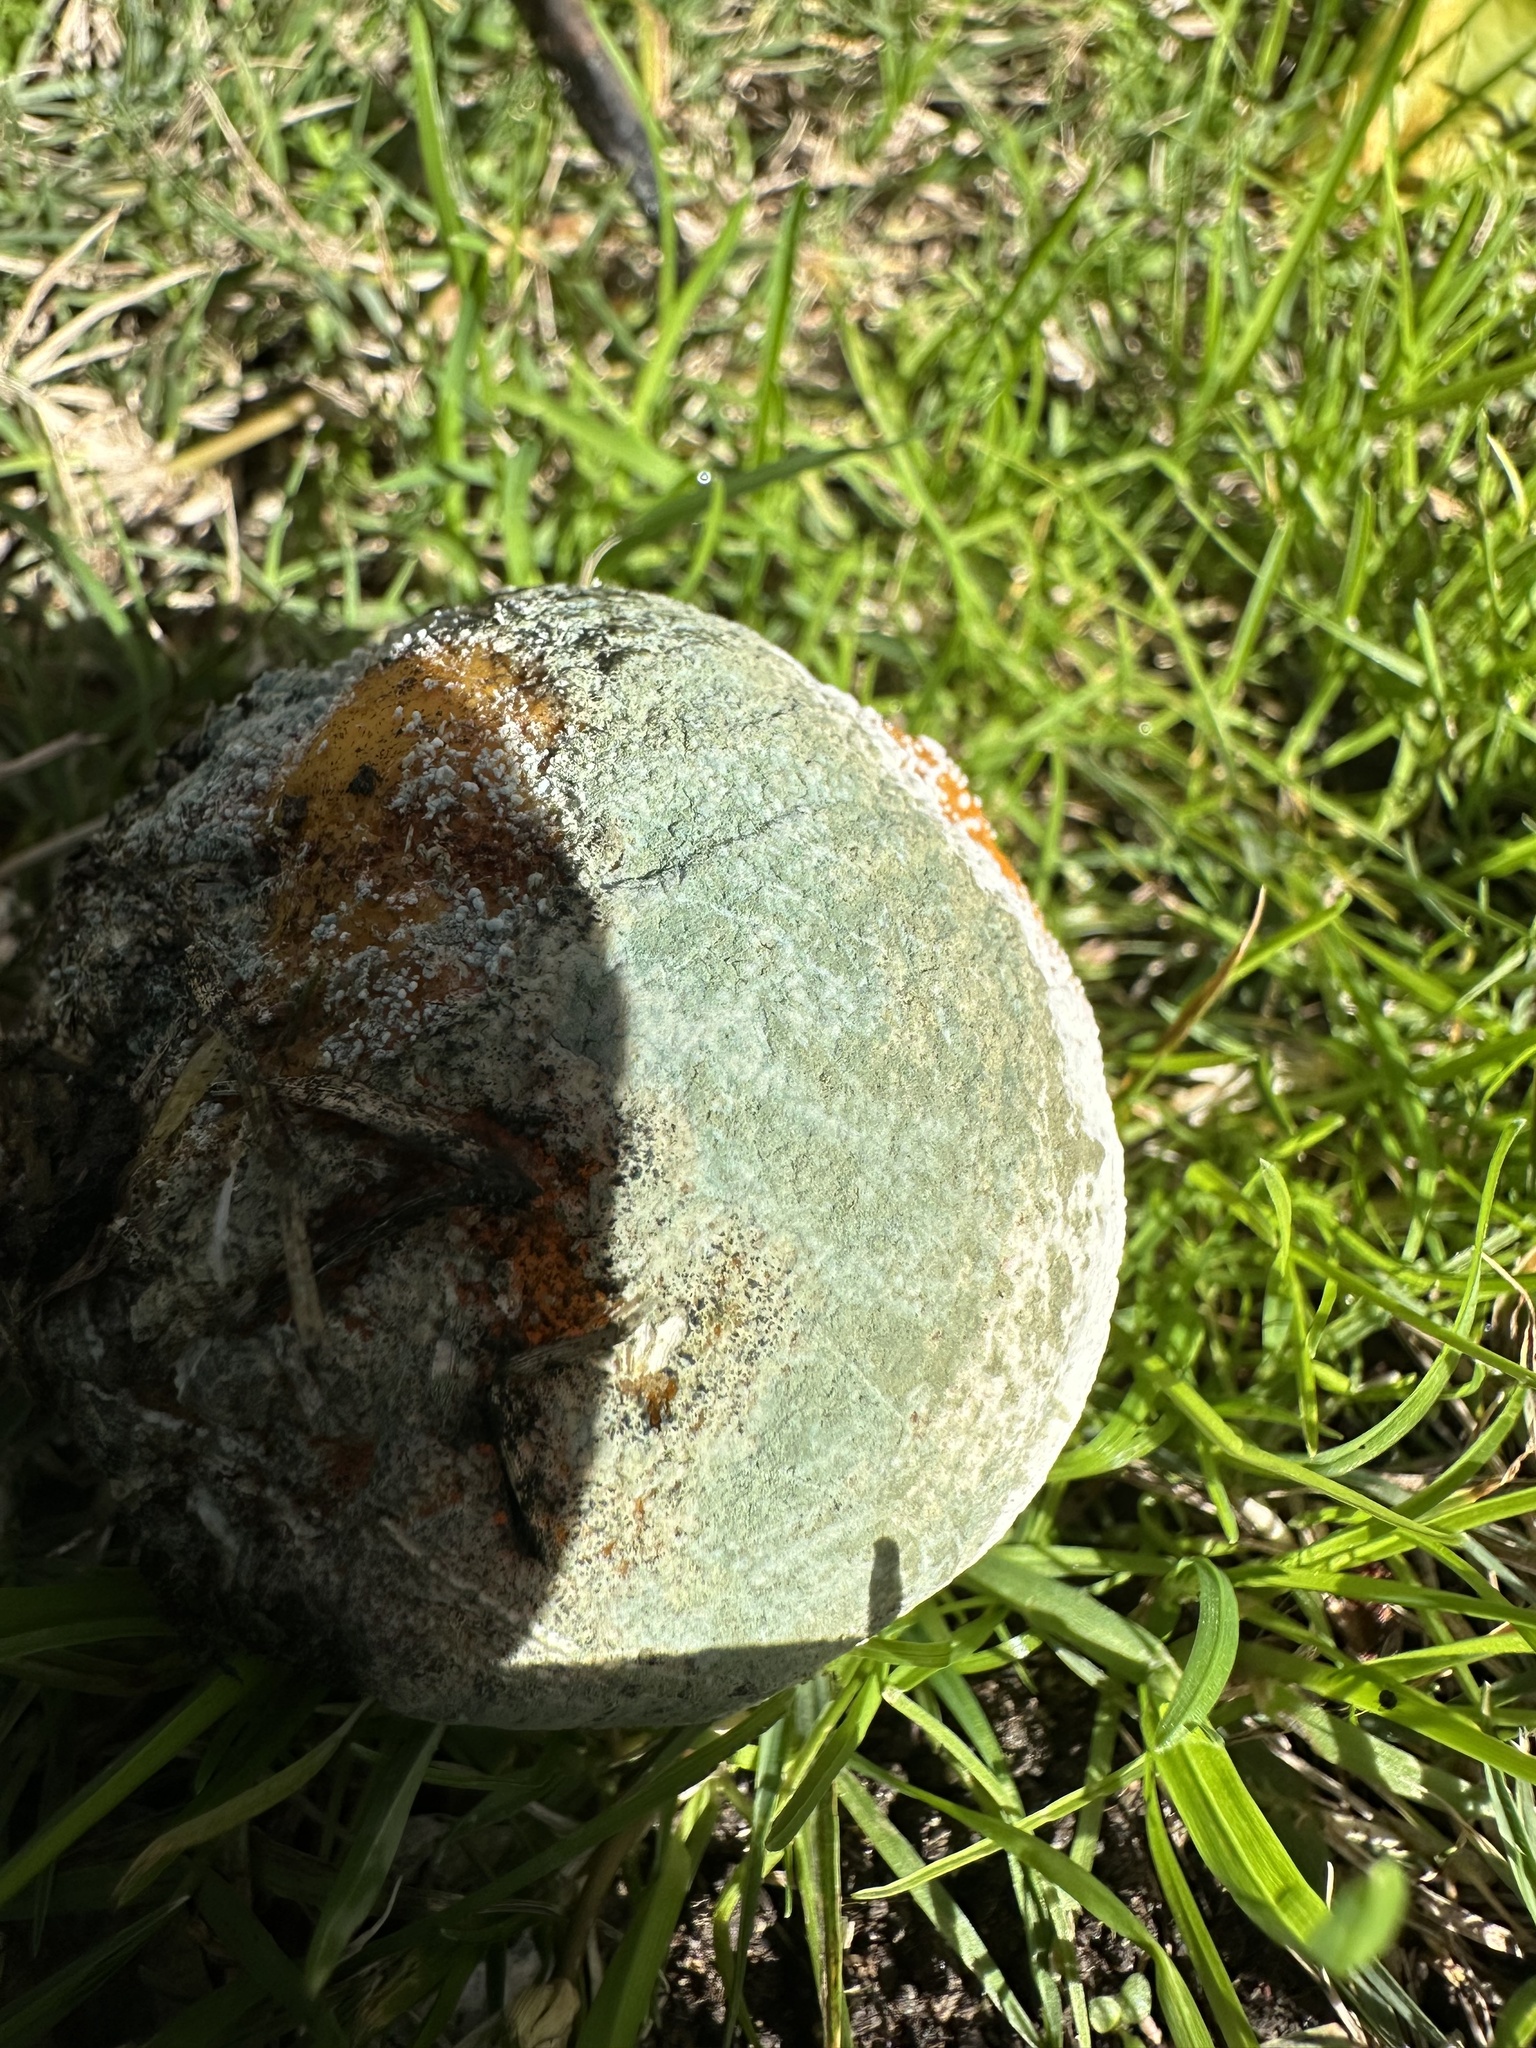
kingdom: Fungi
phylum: Ascomycota
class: Eurotiomycetes
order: Eurotiales
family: Aspergillaceae
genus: Penicillium
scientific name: Penicillium digitatum
